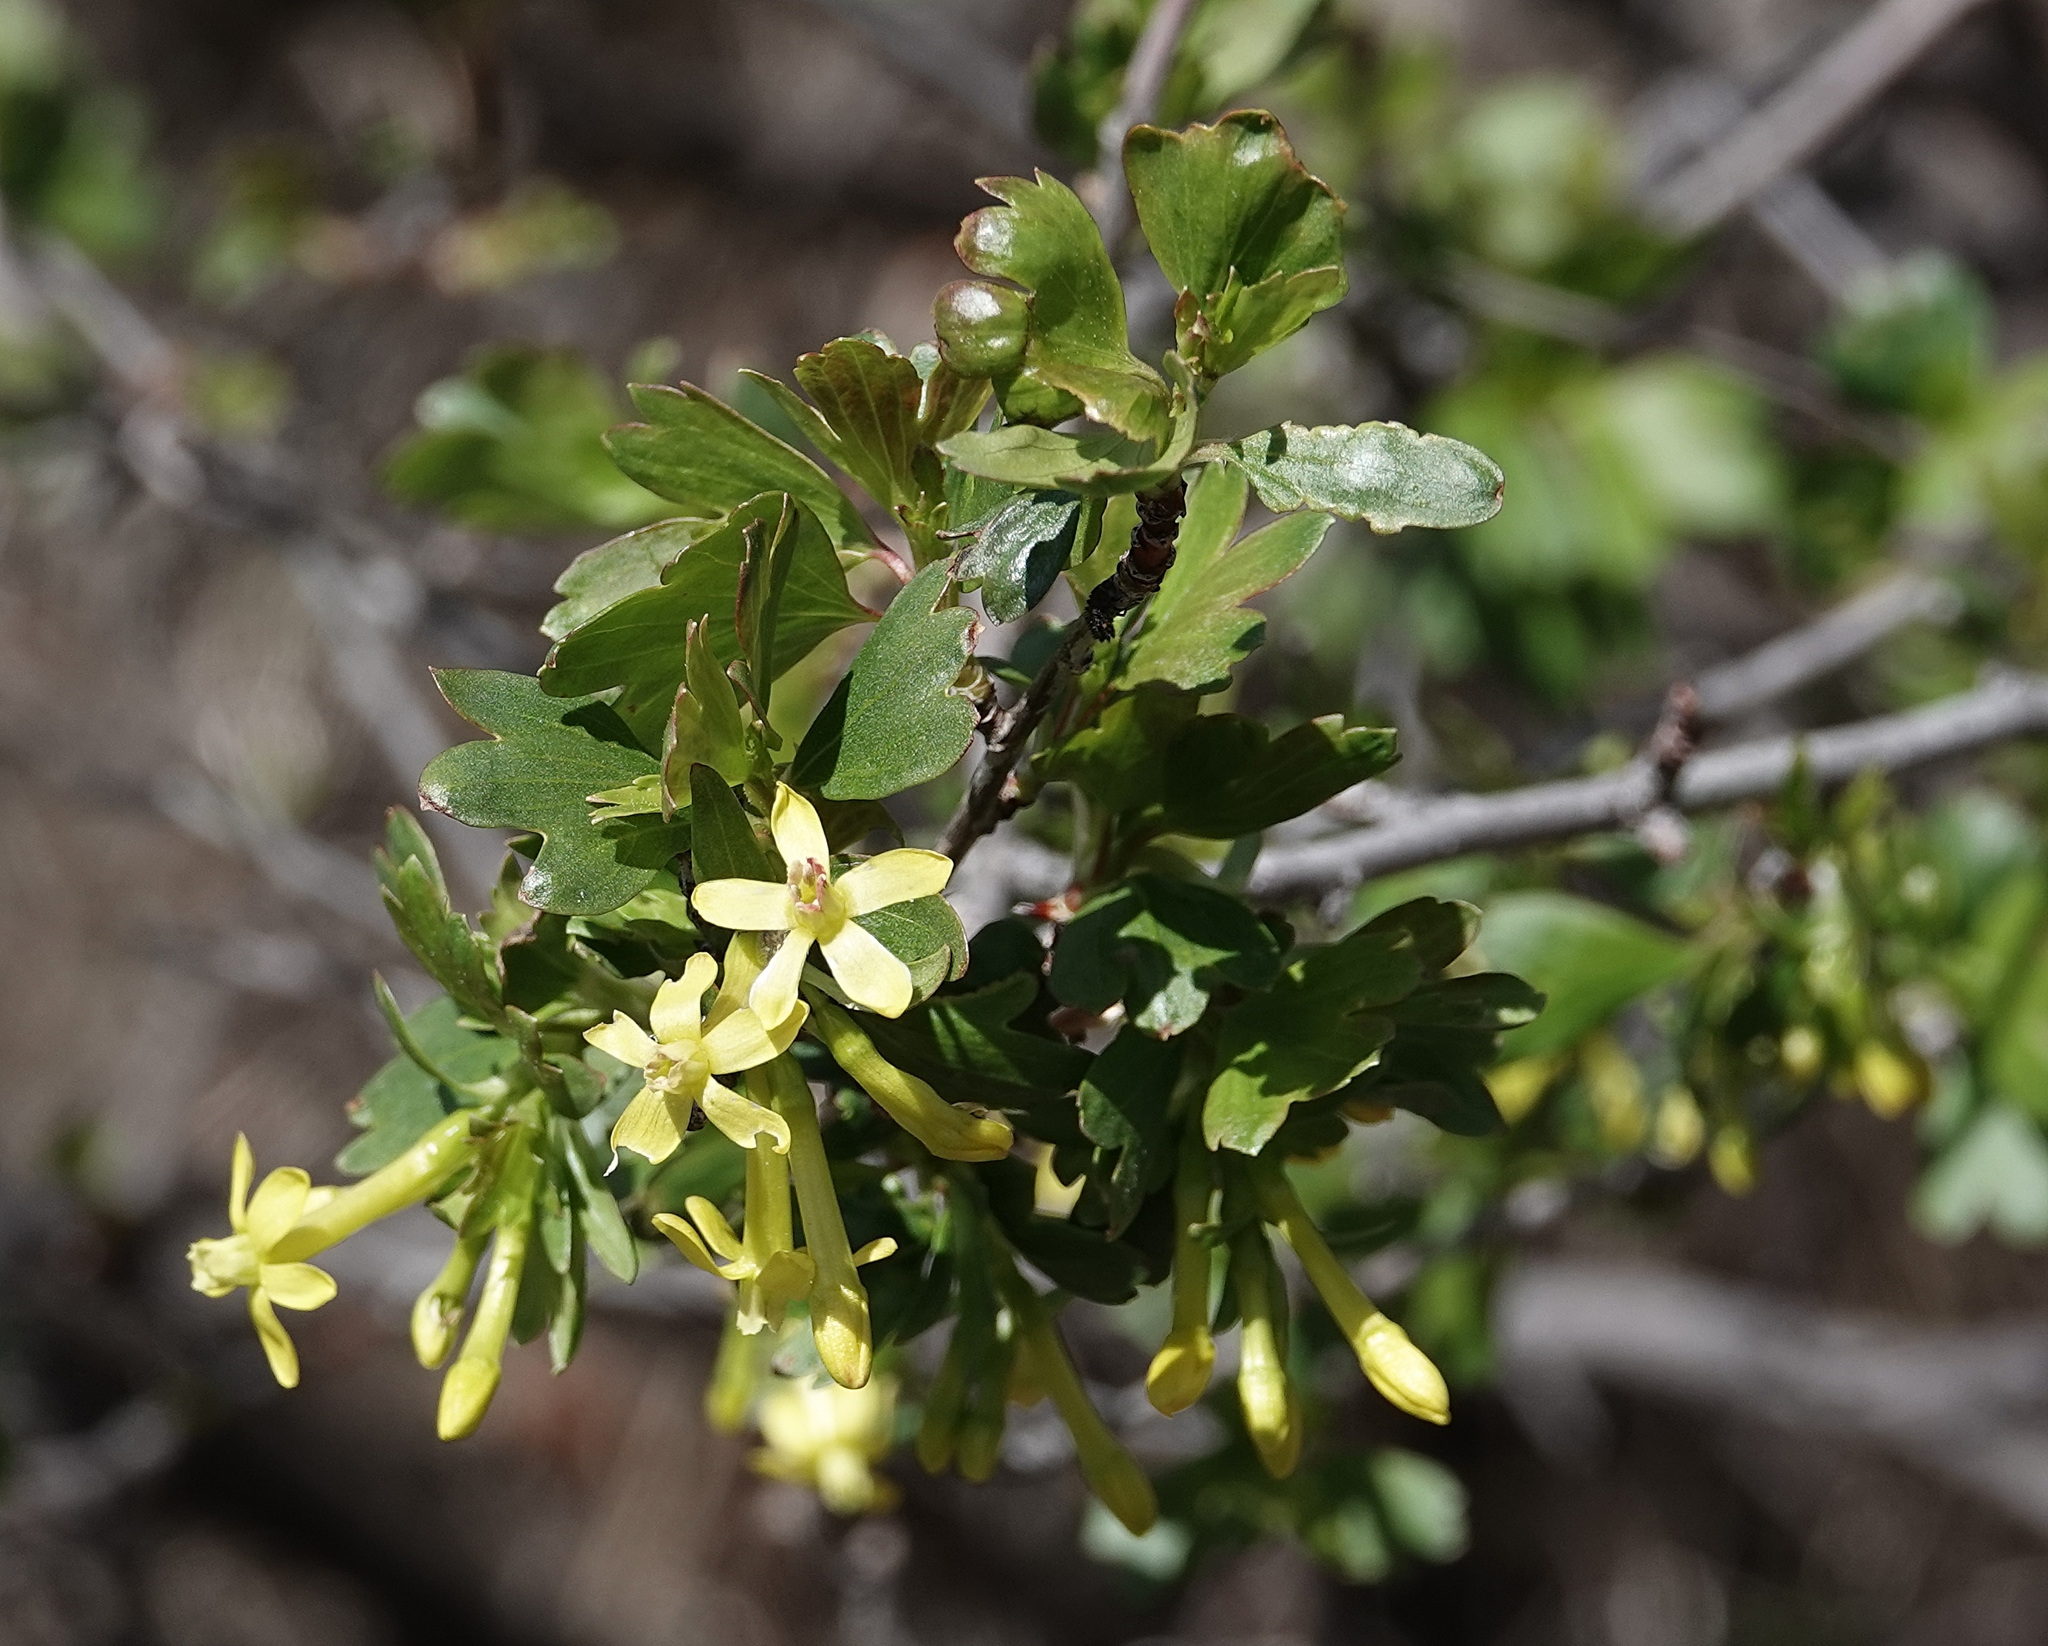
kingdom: Plantae
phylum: Tracheophyta
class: Magnoliopsida
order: Saxifragales
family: Grossulariaceae
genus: Ribes
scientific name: Ribes aureum
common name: Golden currant
